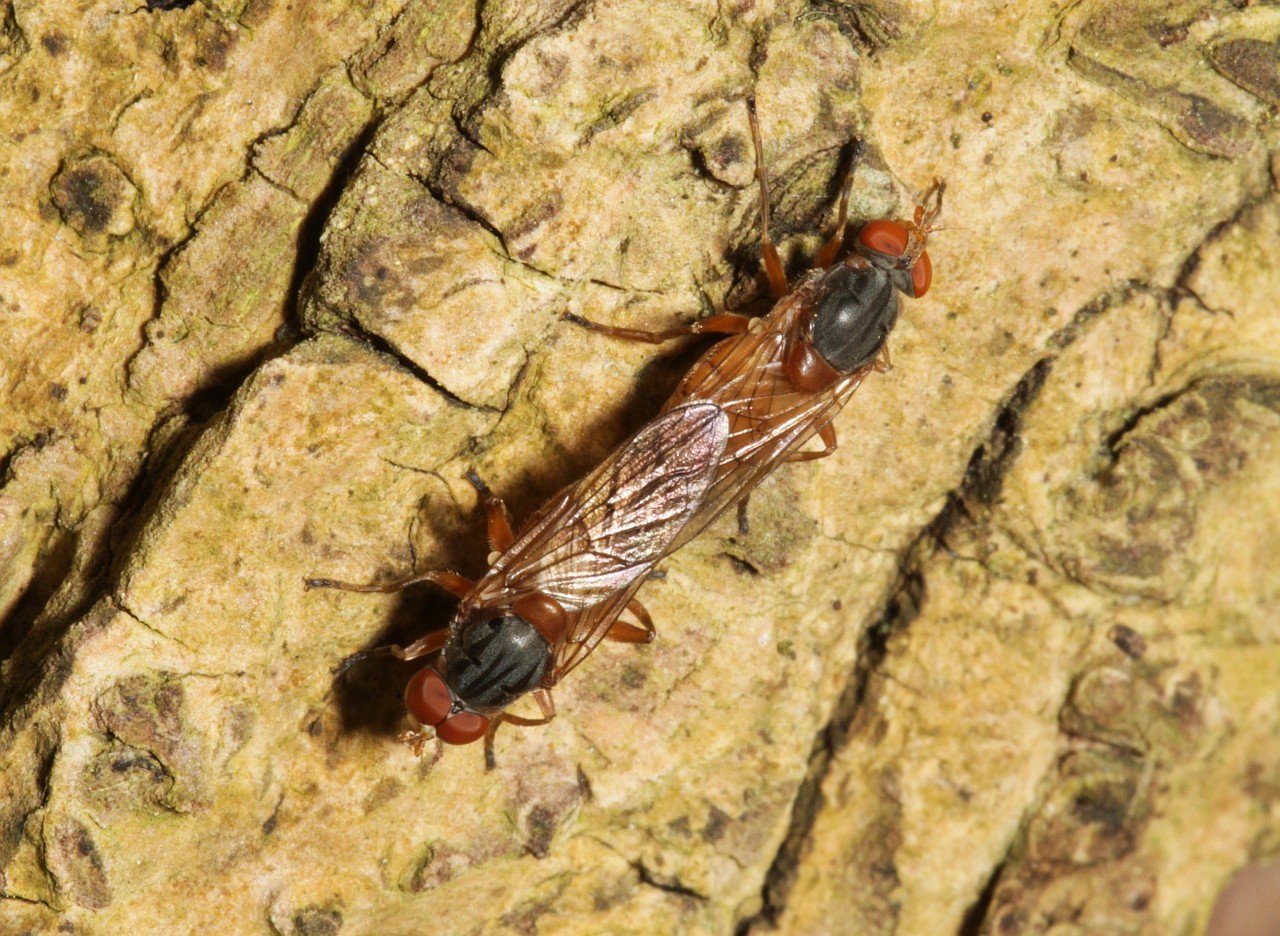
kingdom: Animalia
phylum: Arthropoda
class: Insecta
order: Diptera
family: Syrphidae
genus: Brachyopa
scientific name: Brachyopa scutellaris
